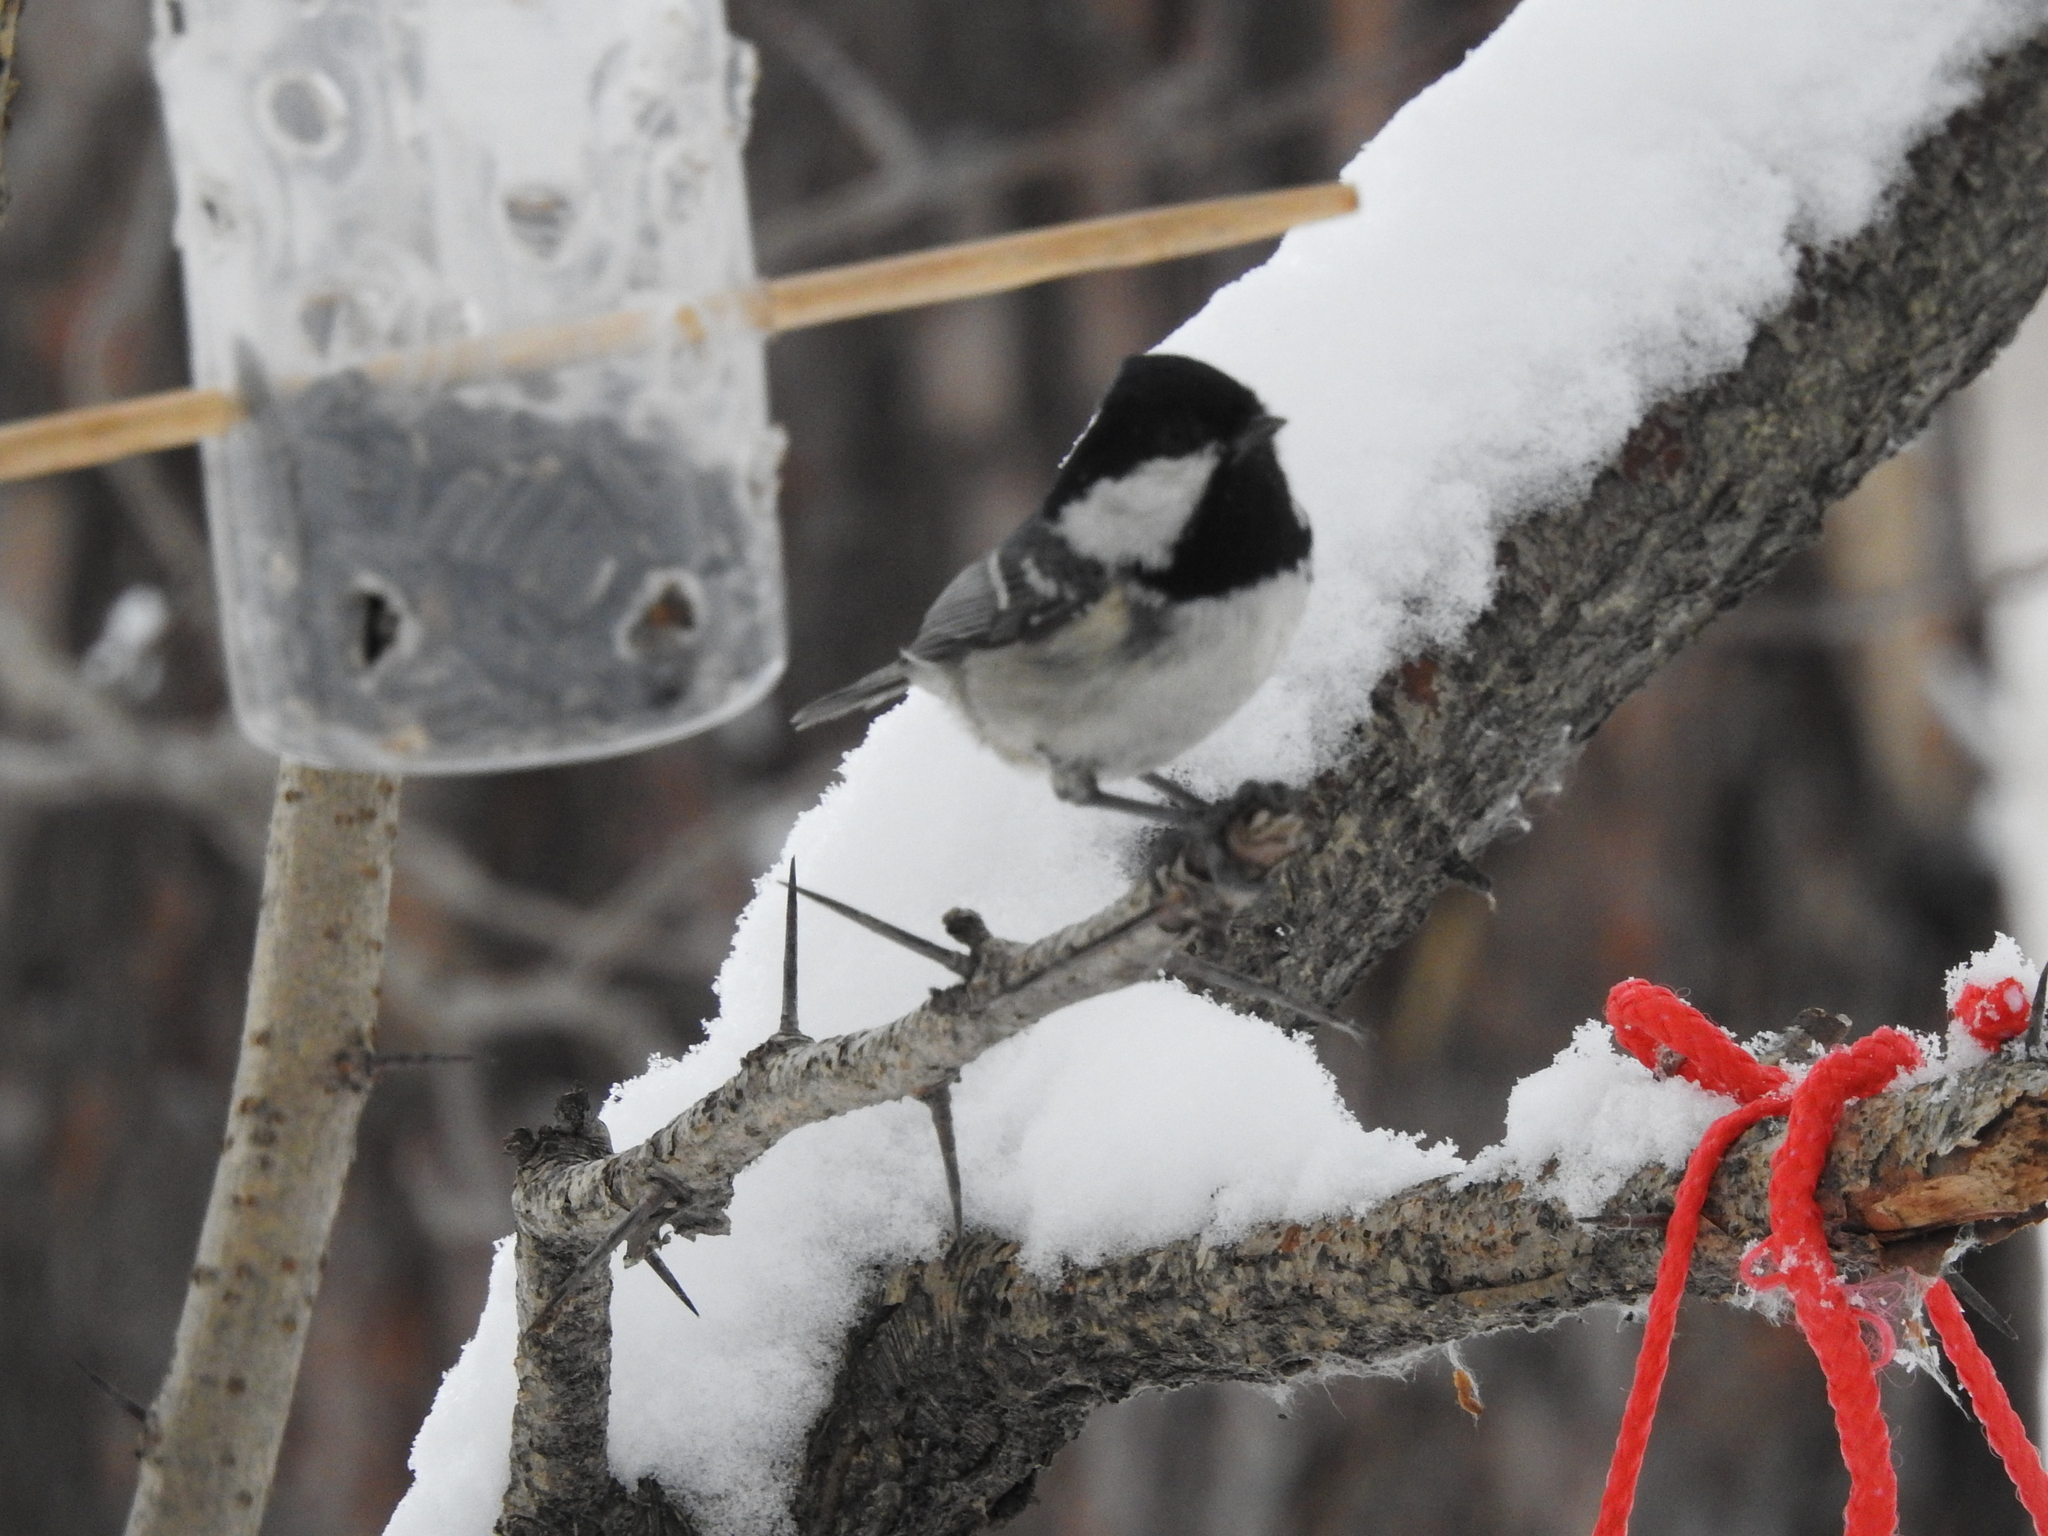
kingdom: Animalia
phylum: Chordata
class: Aves
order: Passeriformes
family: Paridae
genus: Periparus
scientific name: Periparus ater
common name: Coal tit
